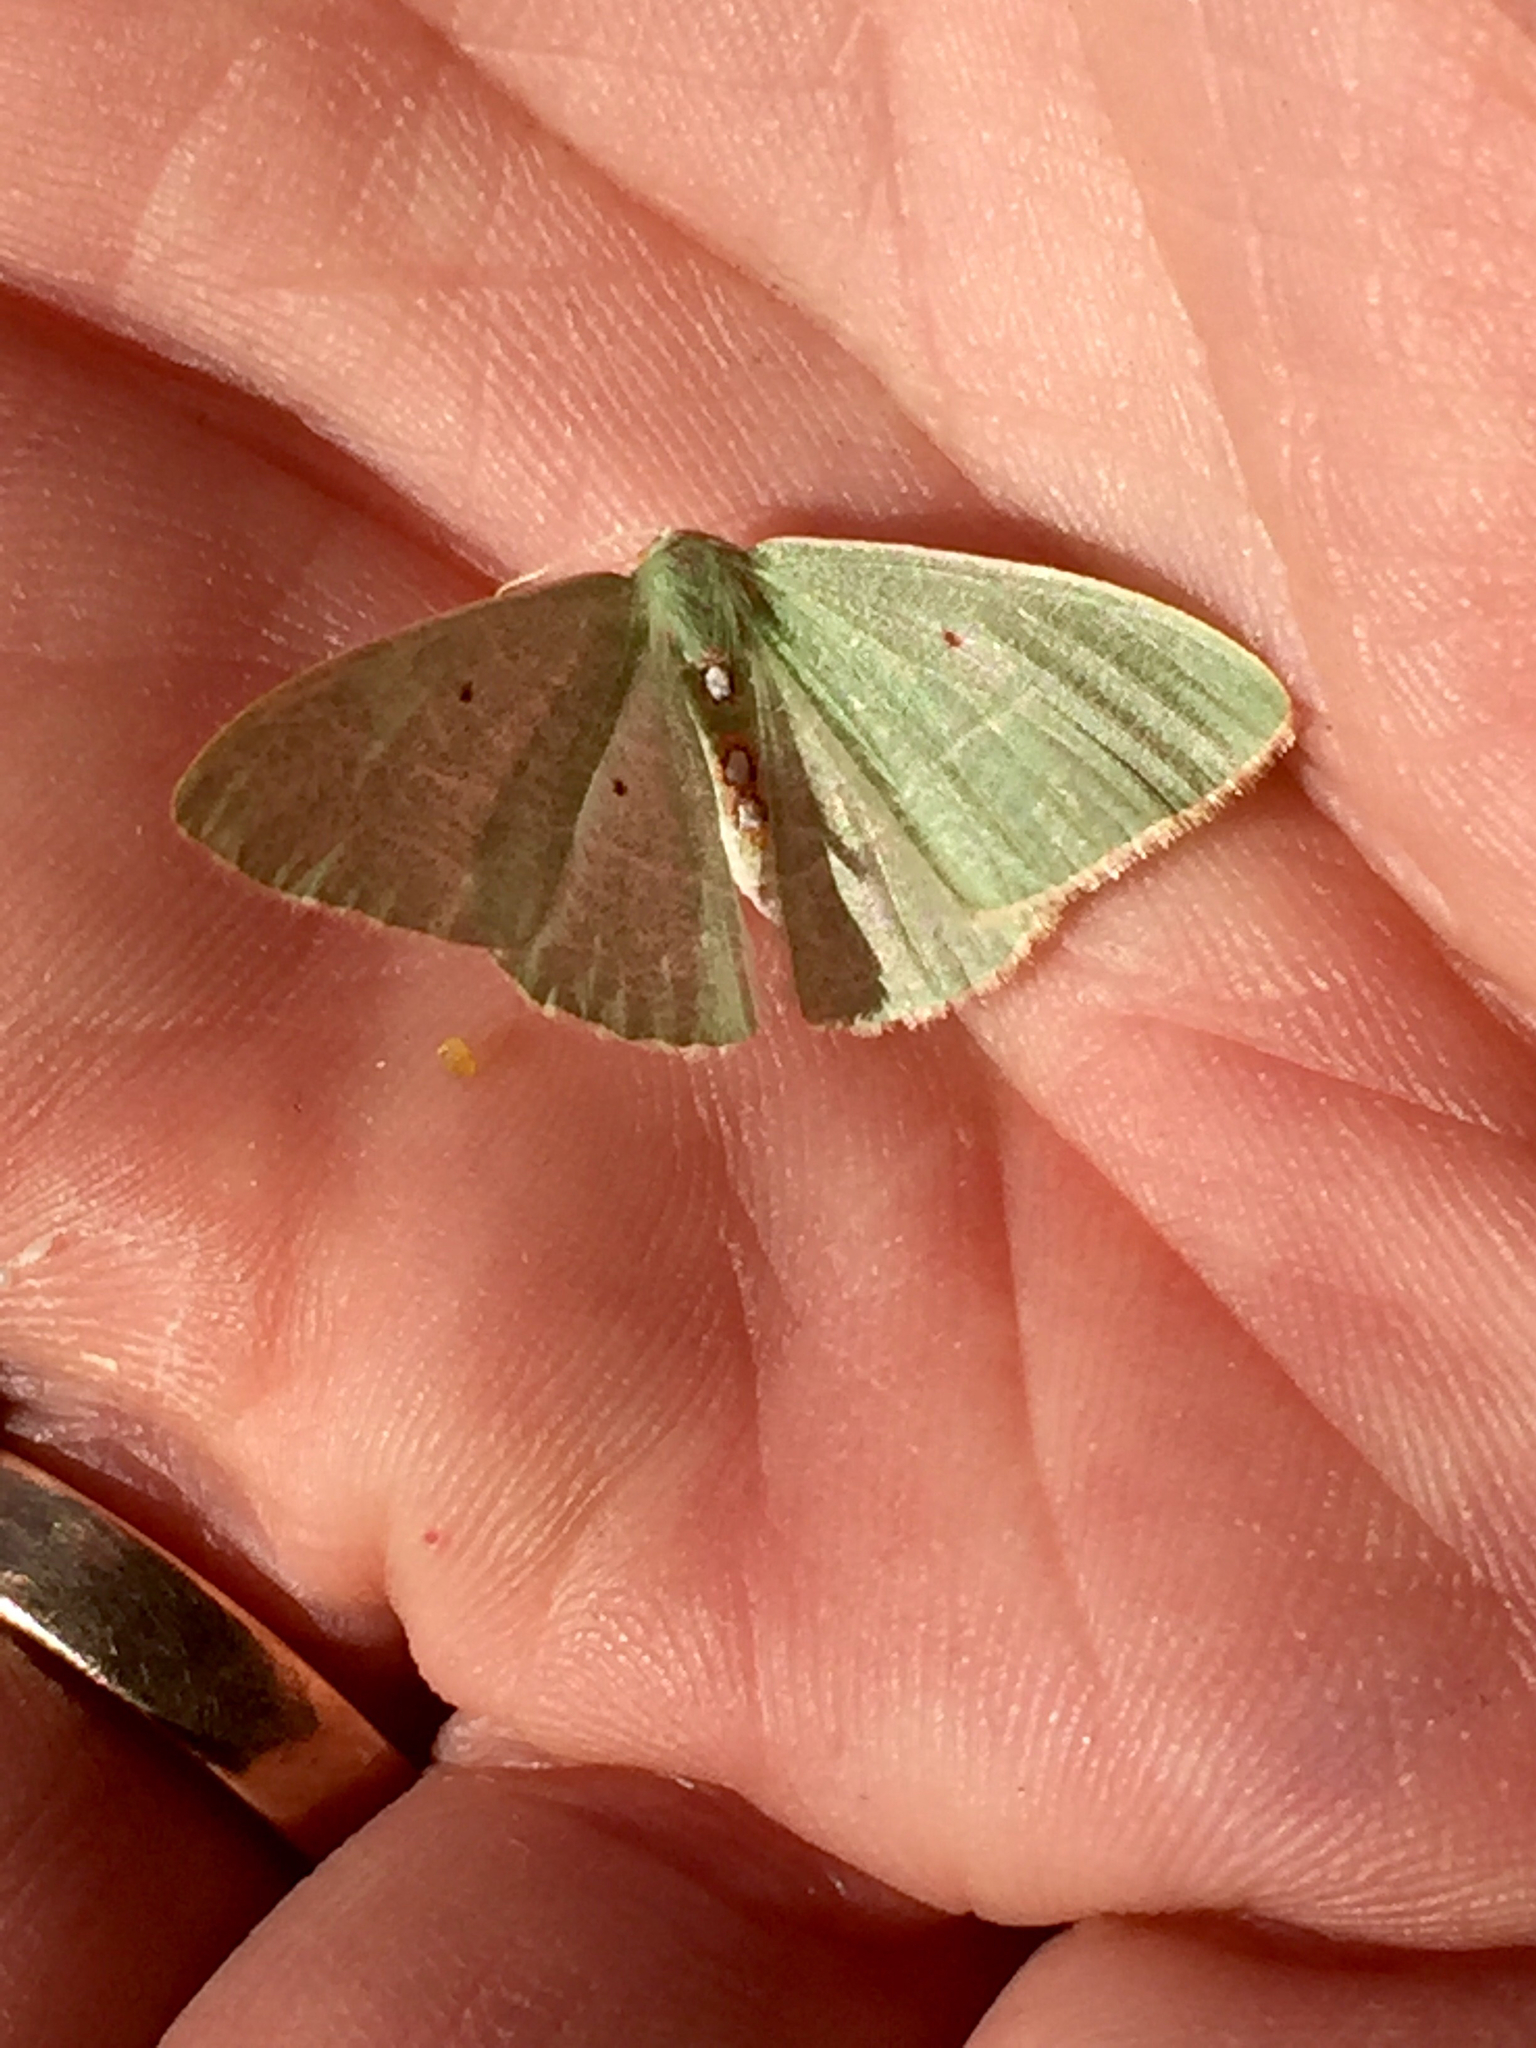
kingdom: Animalia
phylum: Arthropoda
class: Insecta
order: Lepidoptera
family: Geometridae
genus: Nemoria
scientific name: Nemoria darwiniata
